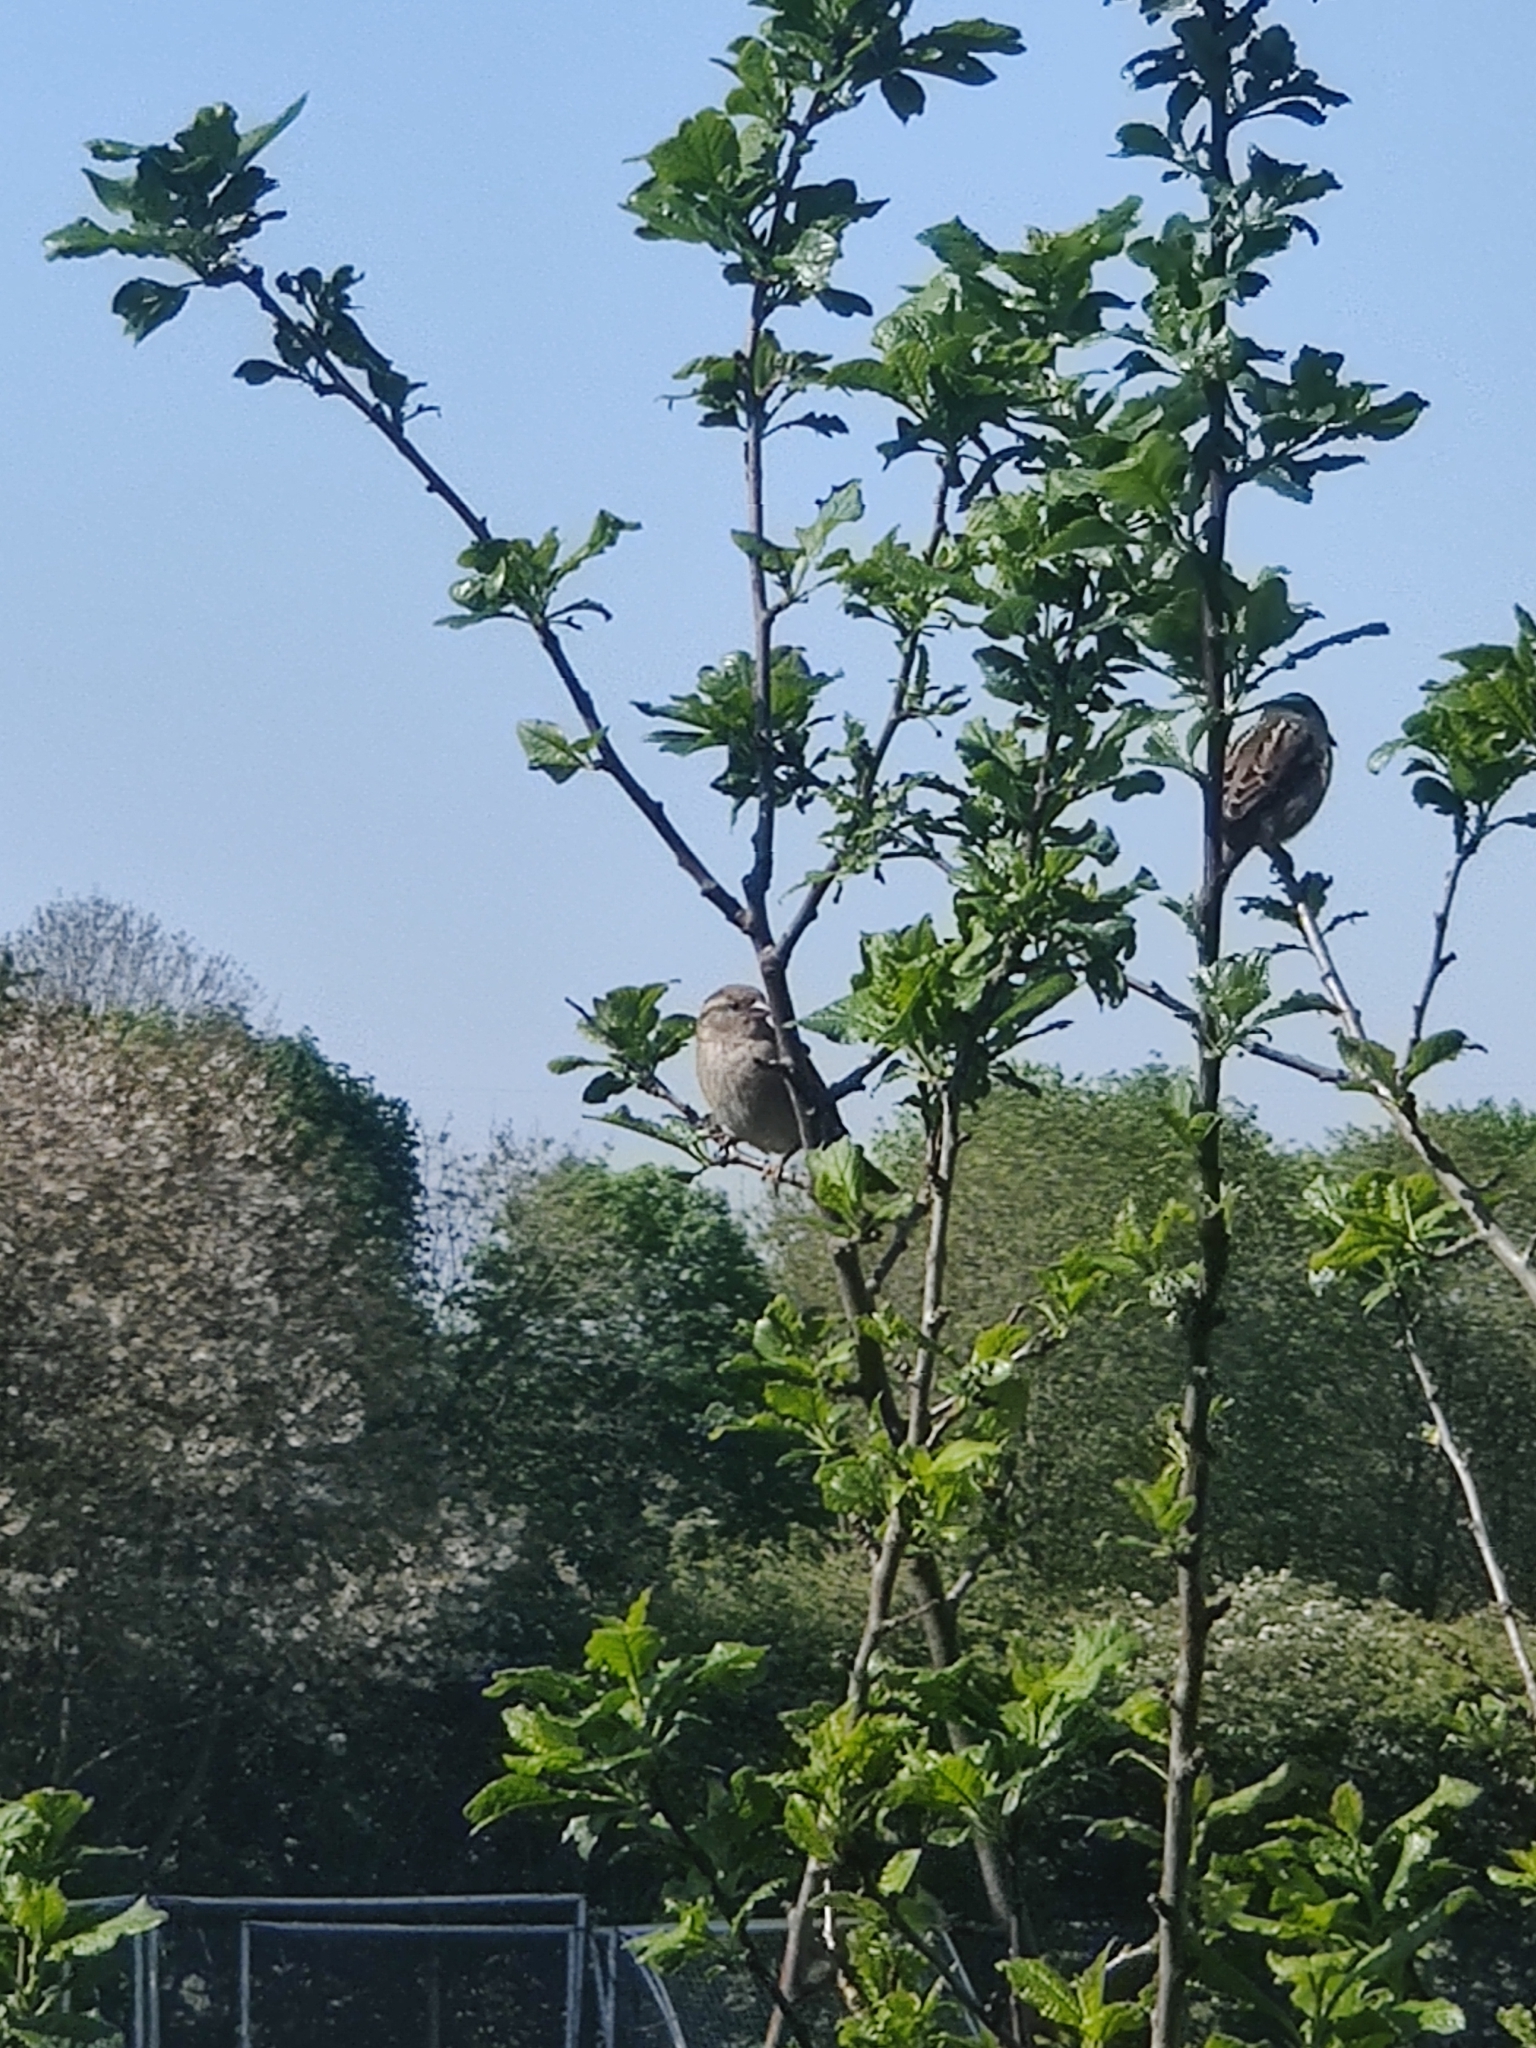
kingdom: Animalia
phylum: Chordata
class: Aves
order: Passeriformes
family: Passeridae
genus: Passer
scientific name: Passer domesticus
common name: House sparrow
